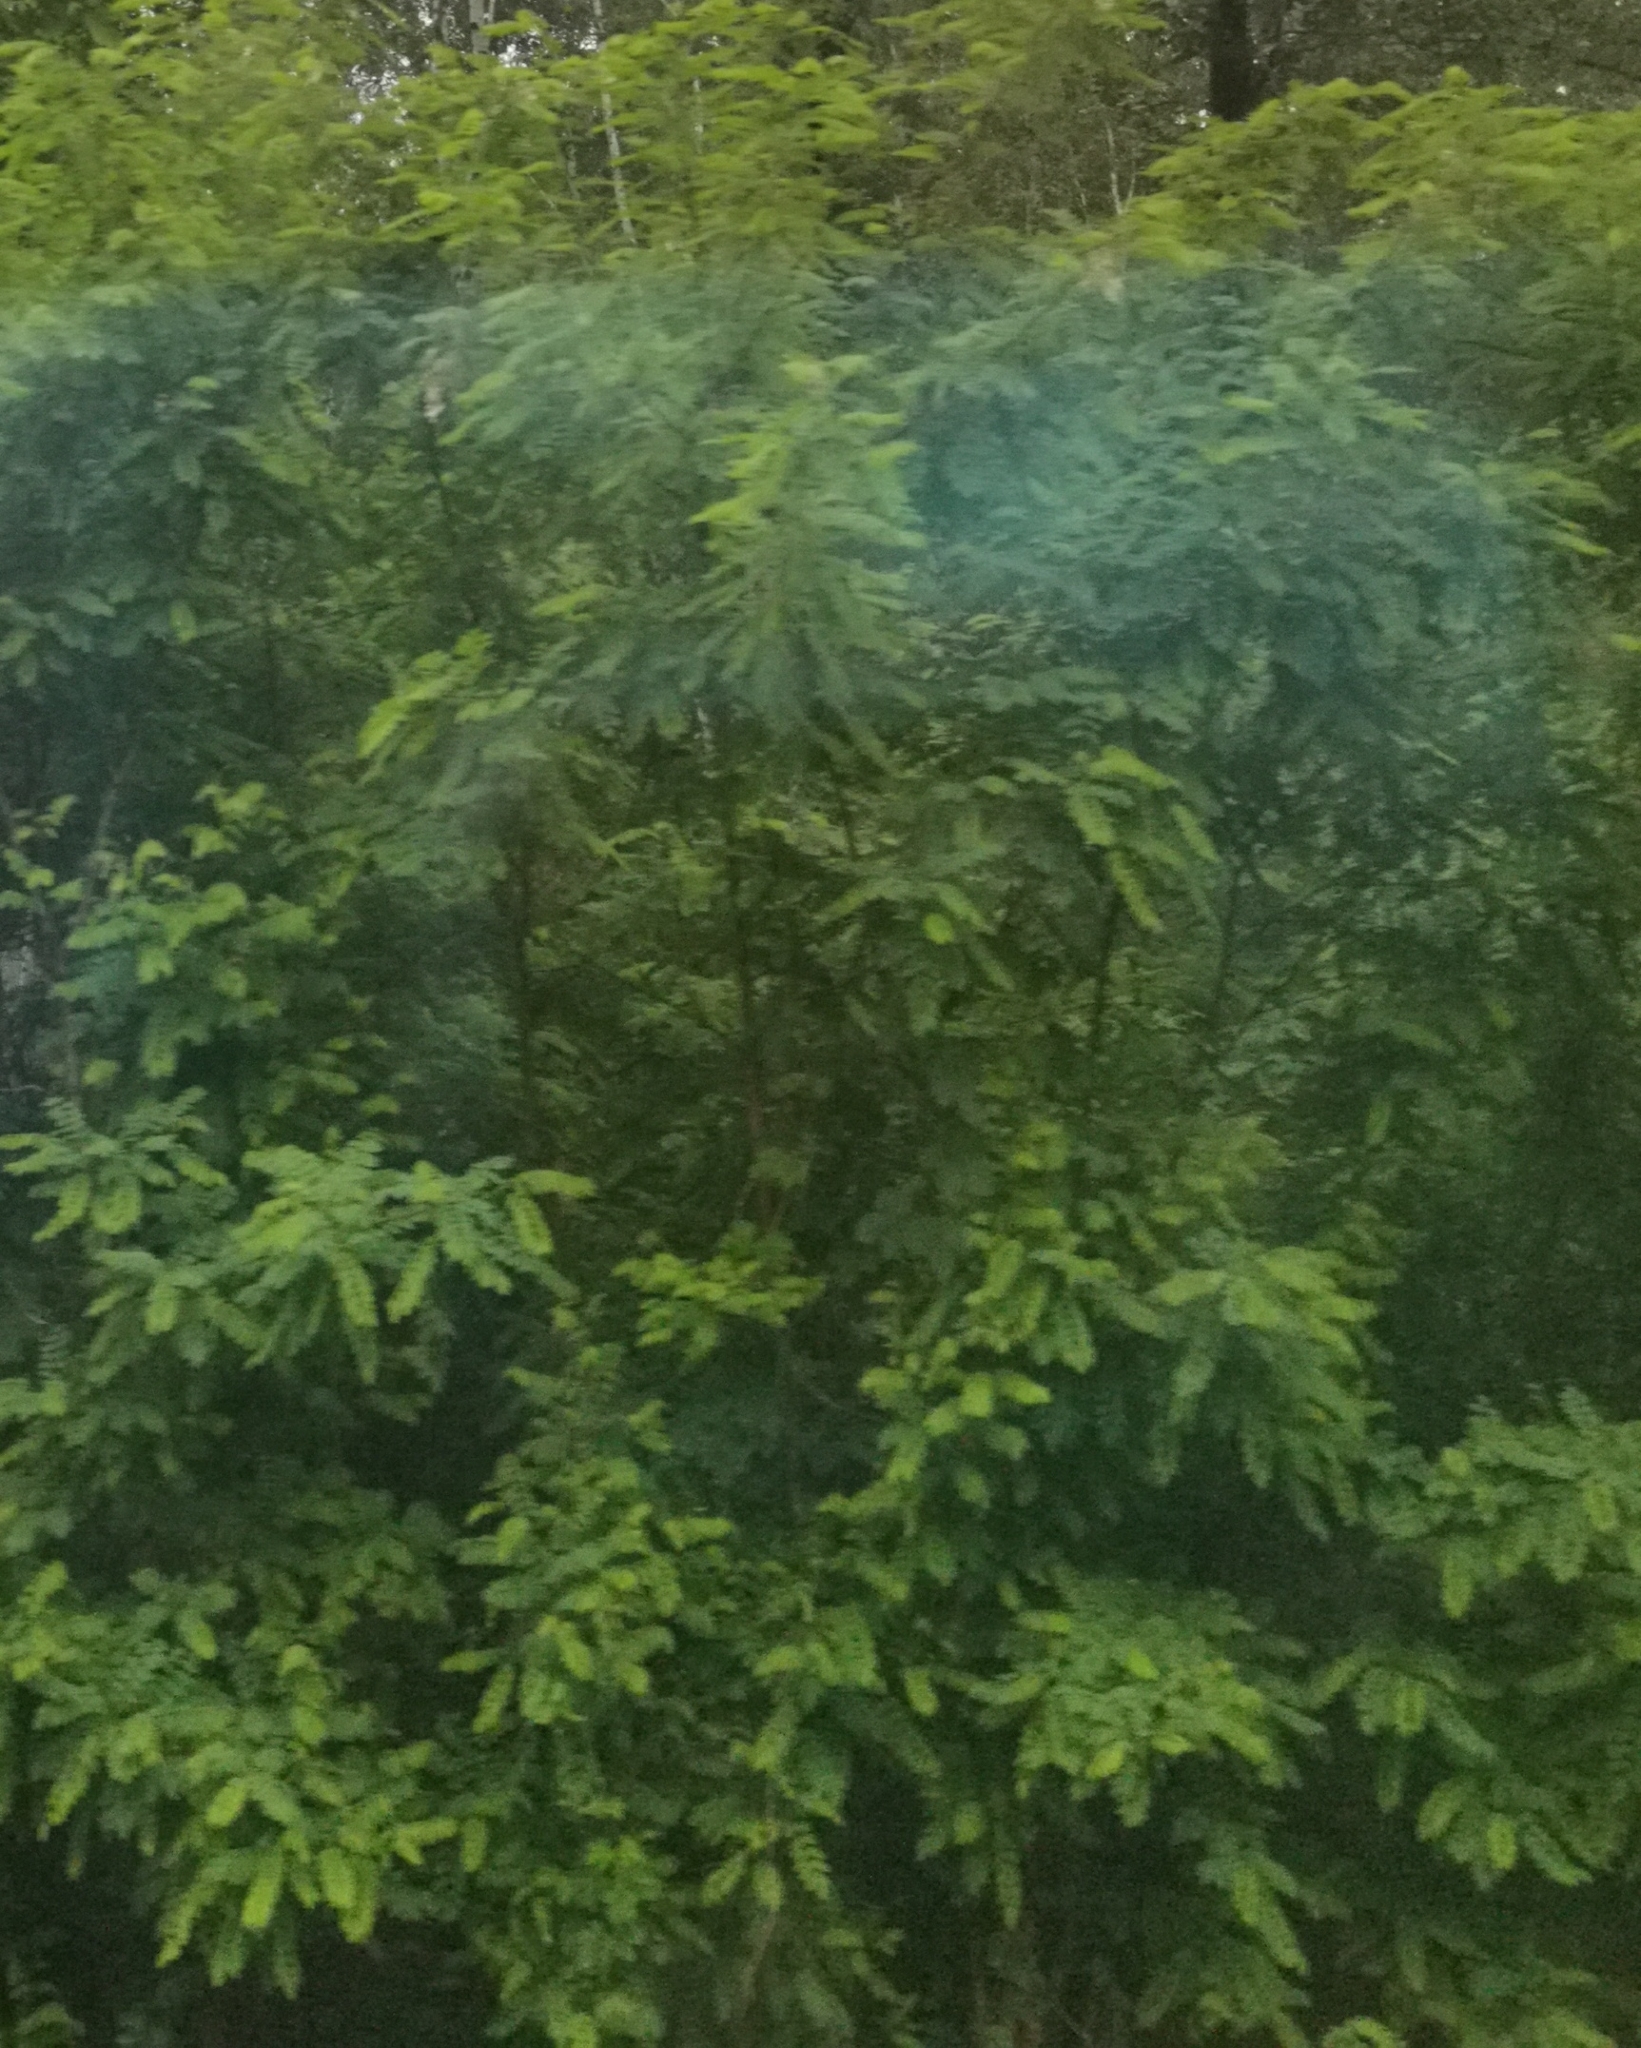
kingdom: Plantae
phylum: Tracheophyta
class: Magnoliopsida
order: Fabales
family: Fabaceae
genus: Robinia
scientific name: Robinia pseudoacacia
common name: Black locust
